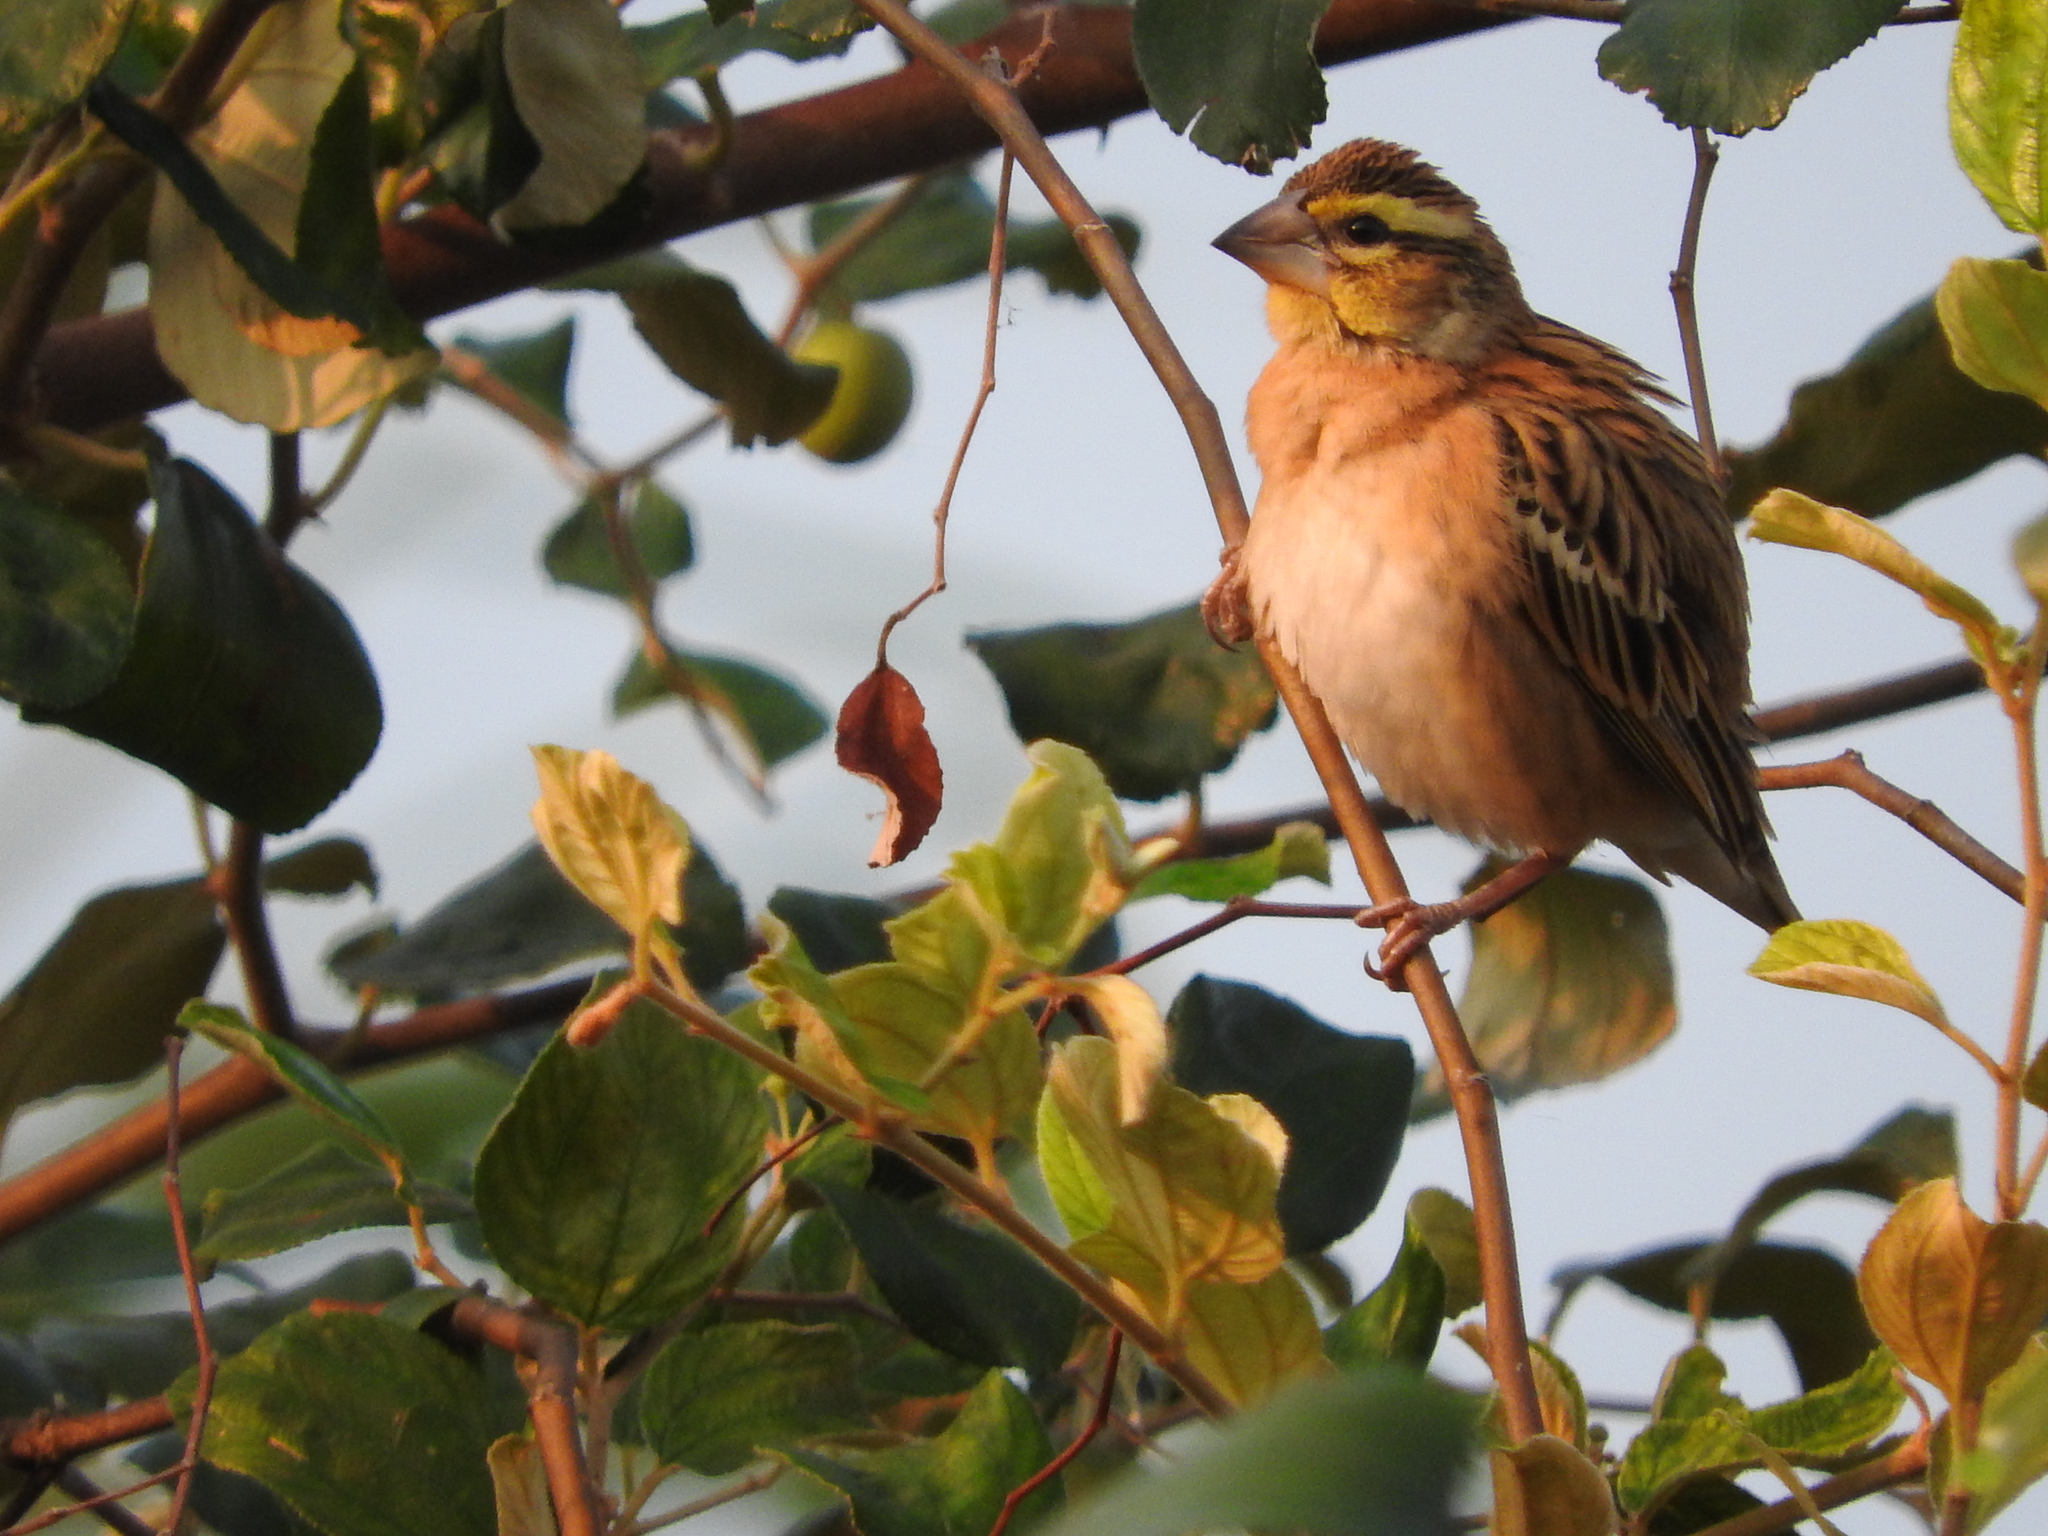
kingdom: Animalia
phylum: Chordata
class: Aves
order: Passeriformes
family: Ploceidae
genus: Euplectes
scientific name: Euplectes aureus
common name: Golden-backed bishop
